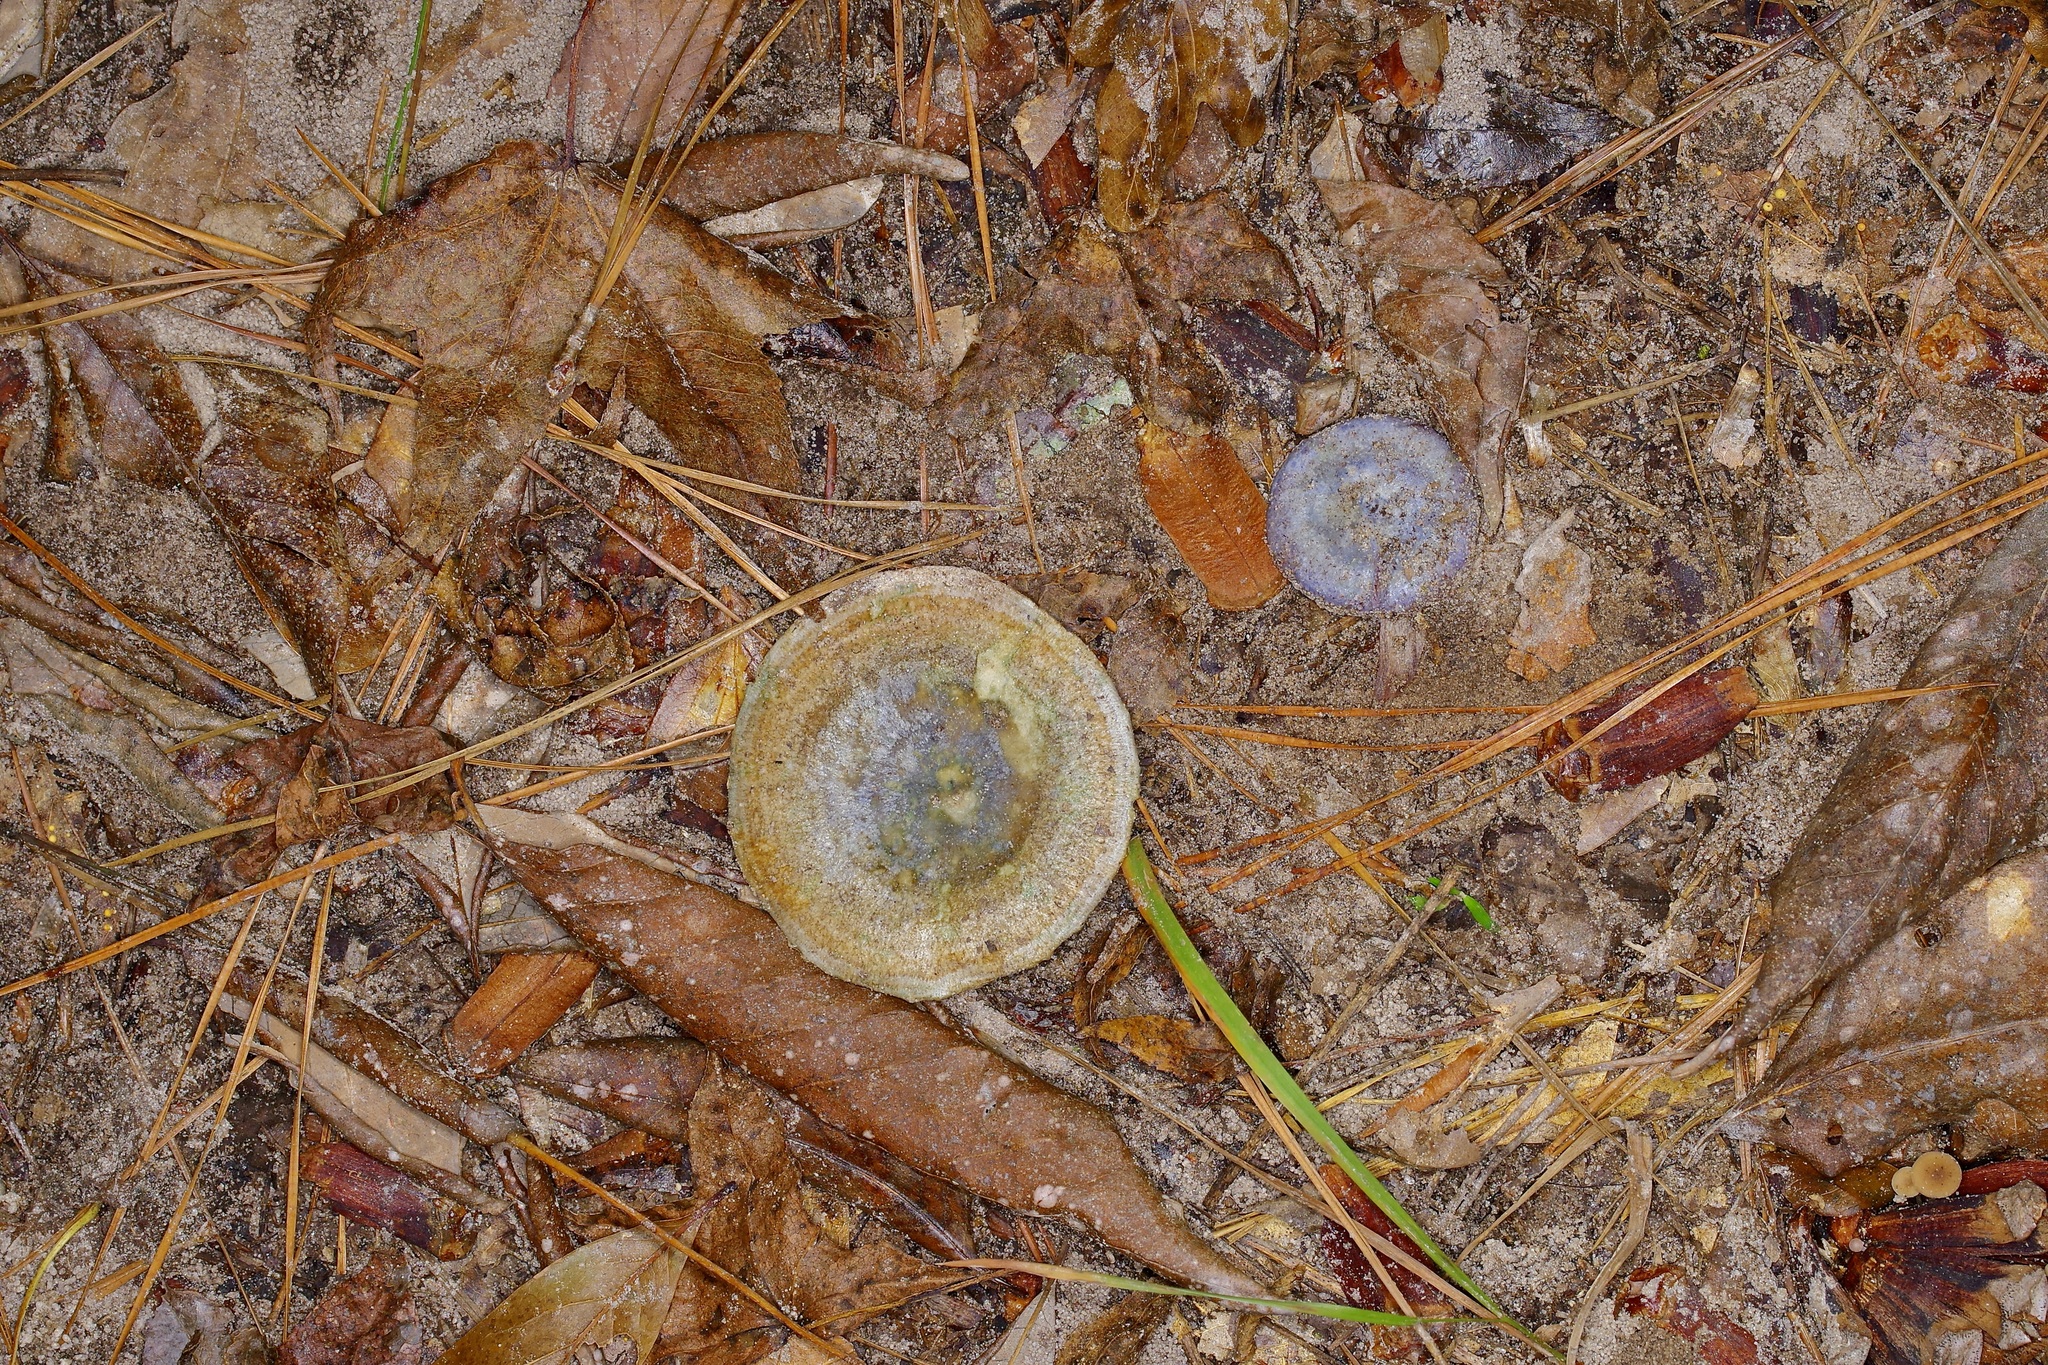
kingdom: Fungi
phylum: Basidiomycota
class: Agaricomycetes
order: Russulales
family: Russulaceae
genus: Lactarius
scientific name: Lactarius indigo
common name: Indigo milk cap
